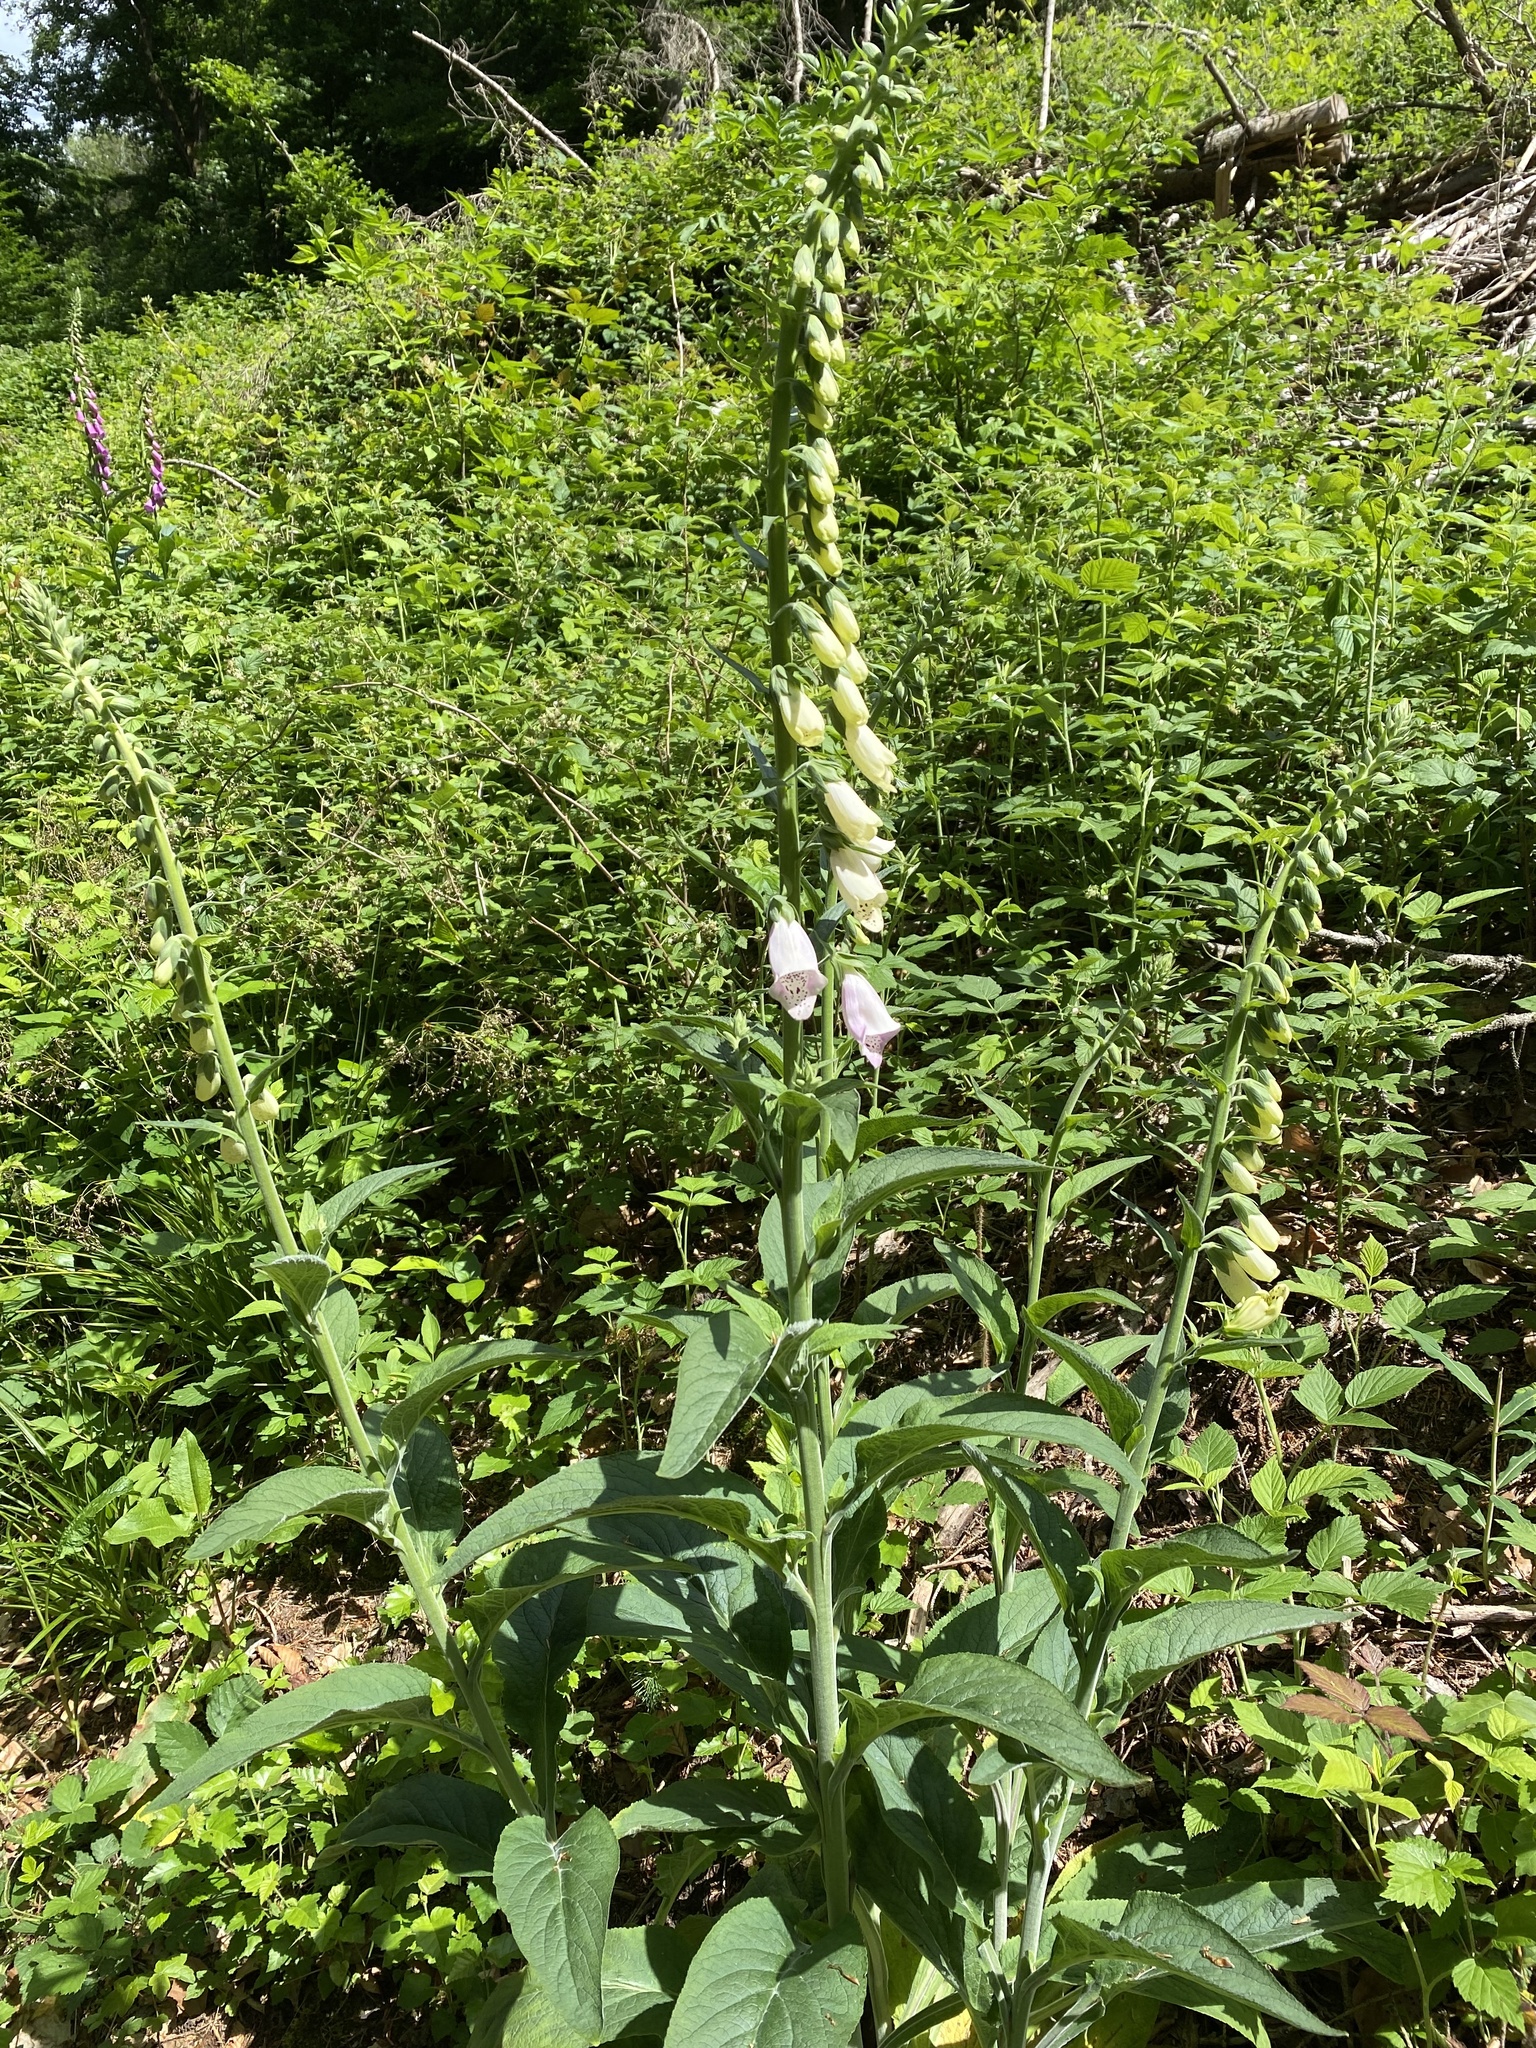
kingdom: Plantae
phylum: Tracheophyta
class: Magnoliopsida
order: Lamiales
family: Plantaginaceae
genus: Digitalis
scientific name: Digitalis purpurea
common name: Foxglove
